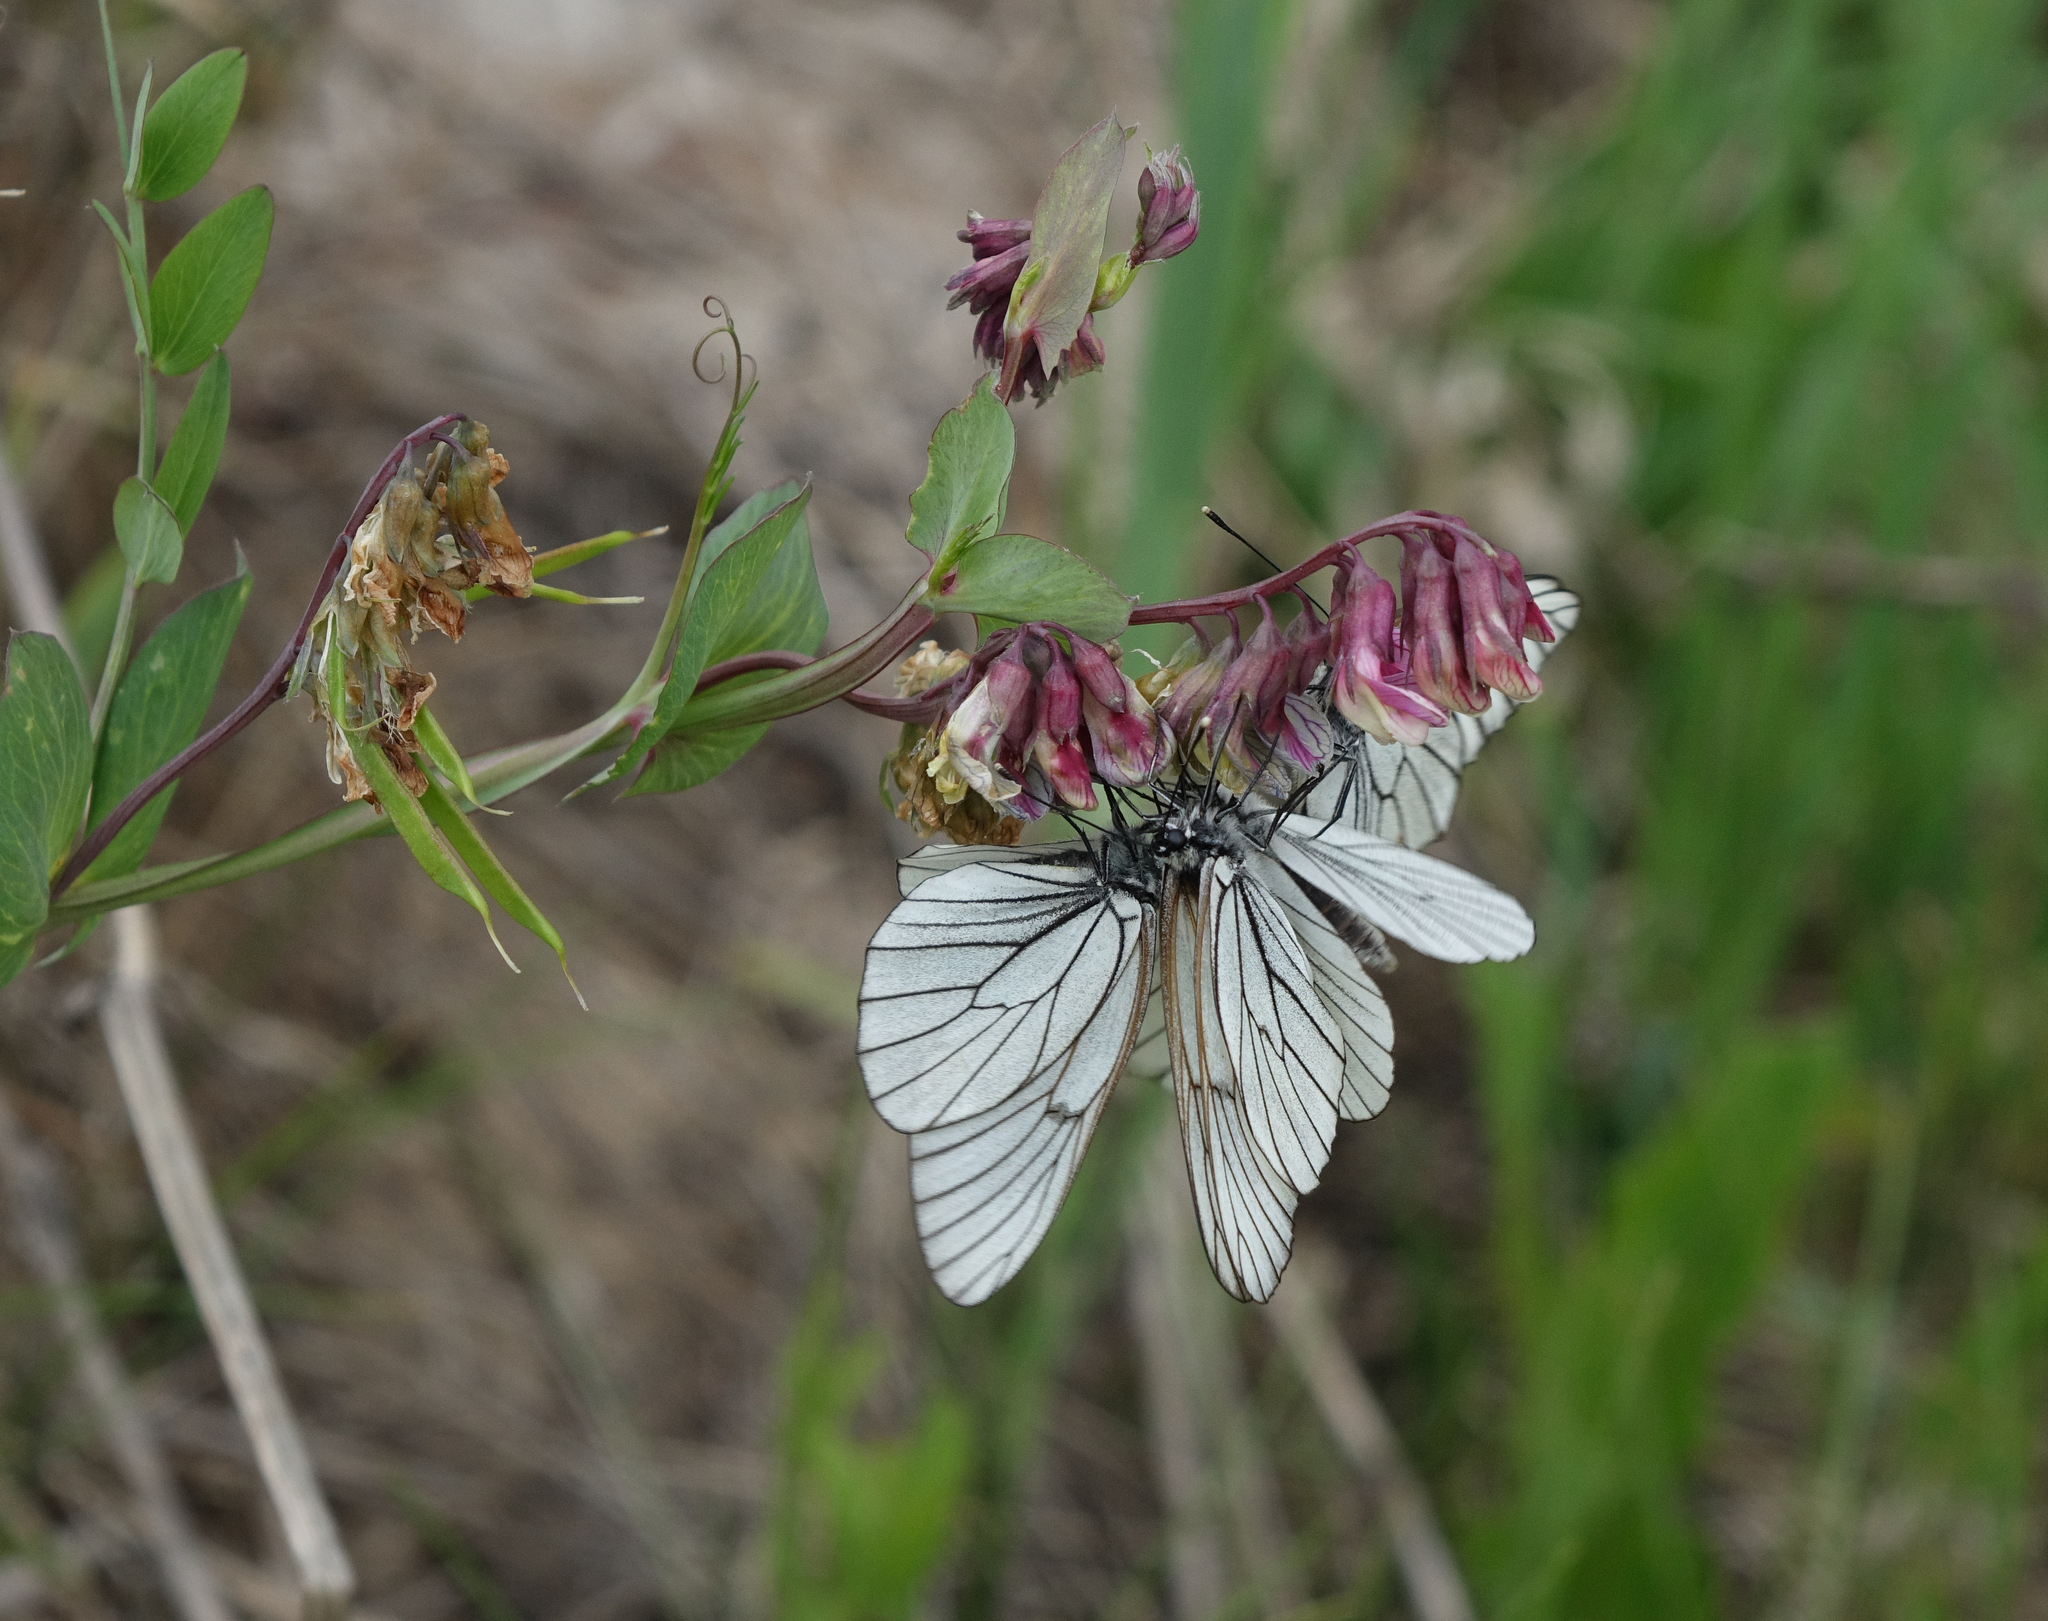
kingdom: Animalia
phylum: Arthropoda
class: Insecta
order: Lepidoptera
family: Pieridae
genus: Aporia
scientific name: Aporia crataegi
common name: Black-veined white
